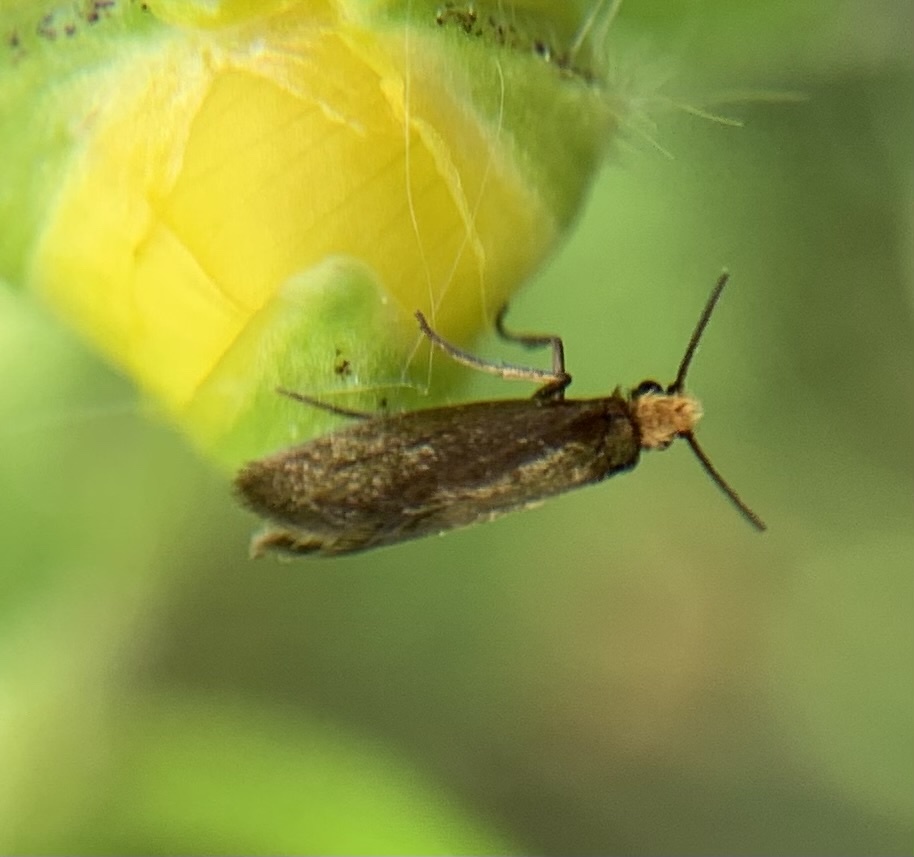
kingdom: Animalia
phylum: Arthropoda
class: Insecta
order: Lepidoptera
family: Micropterigidae
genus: Micropterix
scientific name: Micropterix calthella
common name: Plain gold
